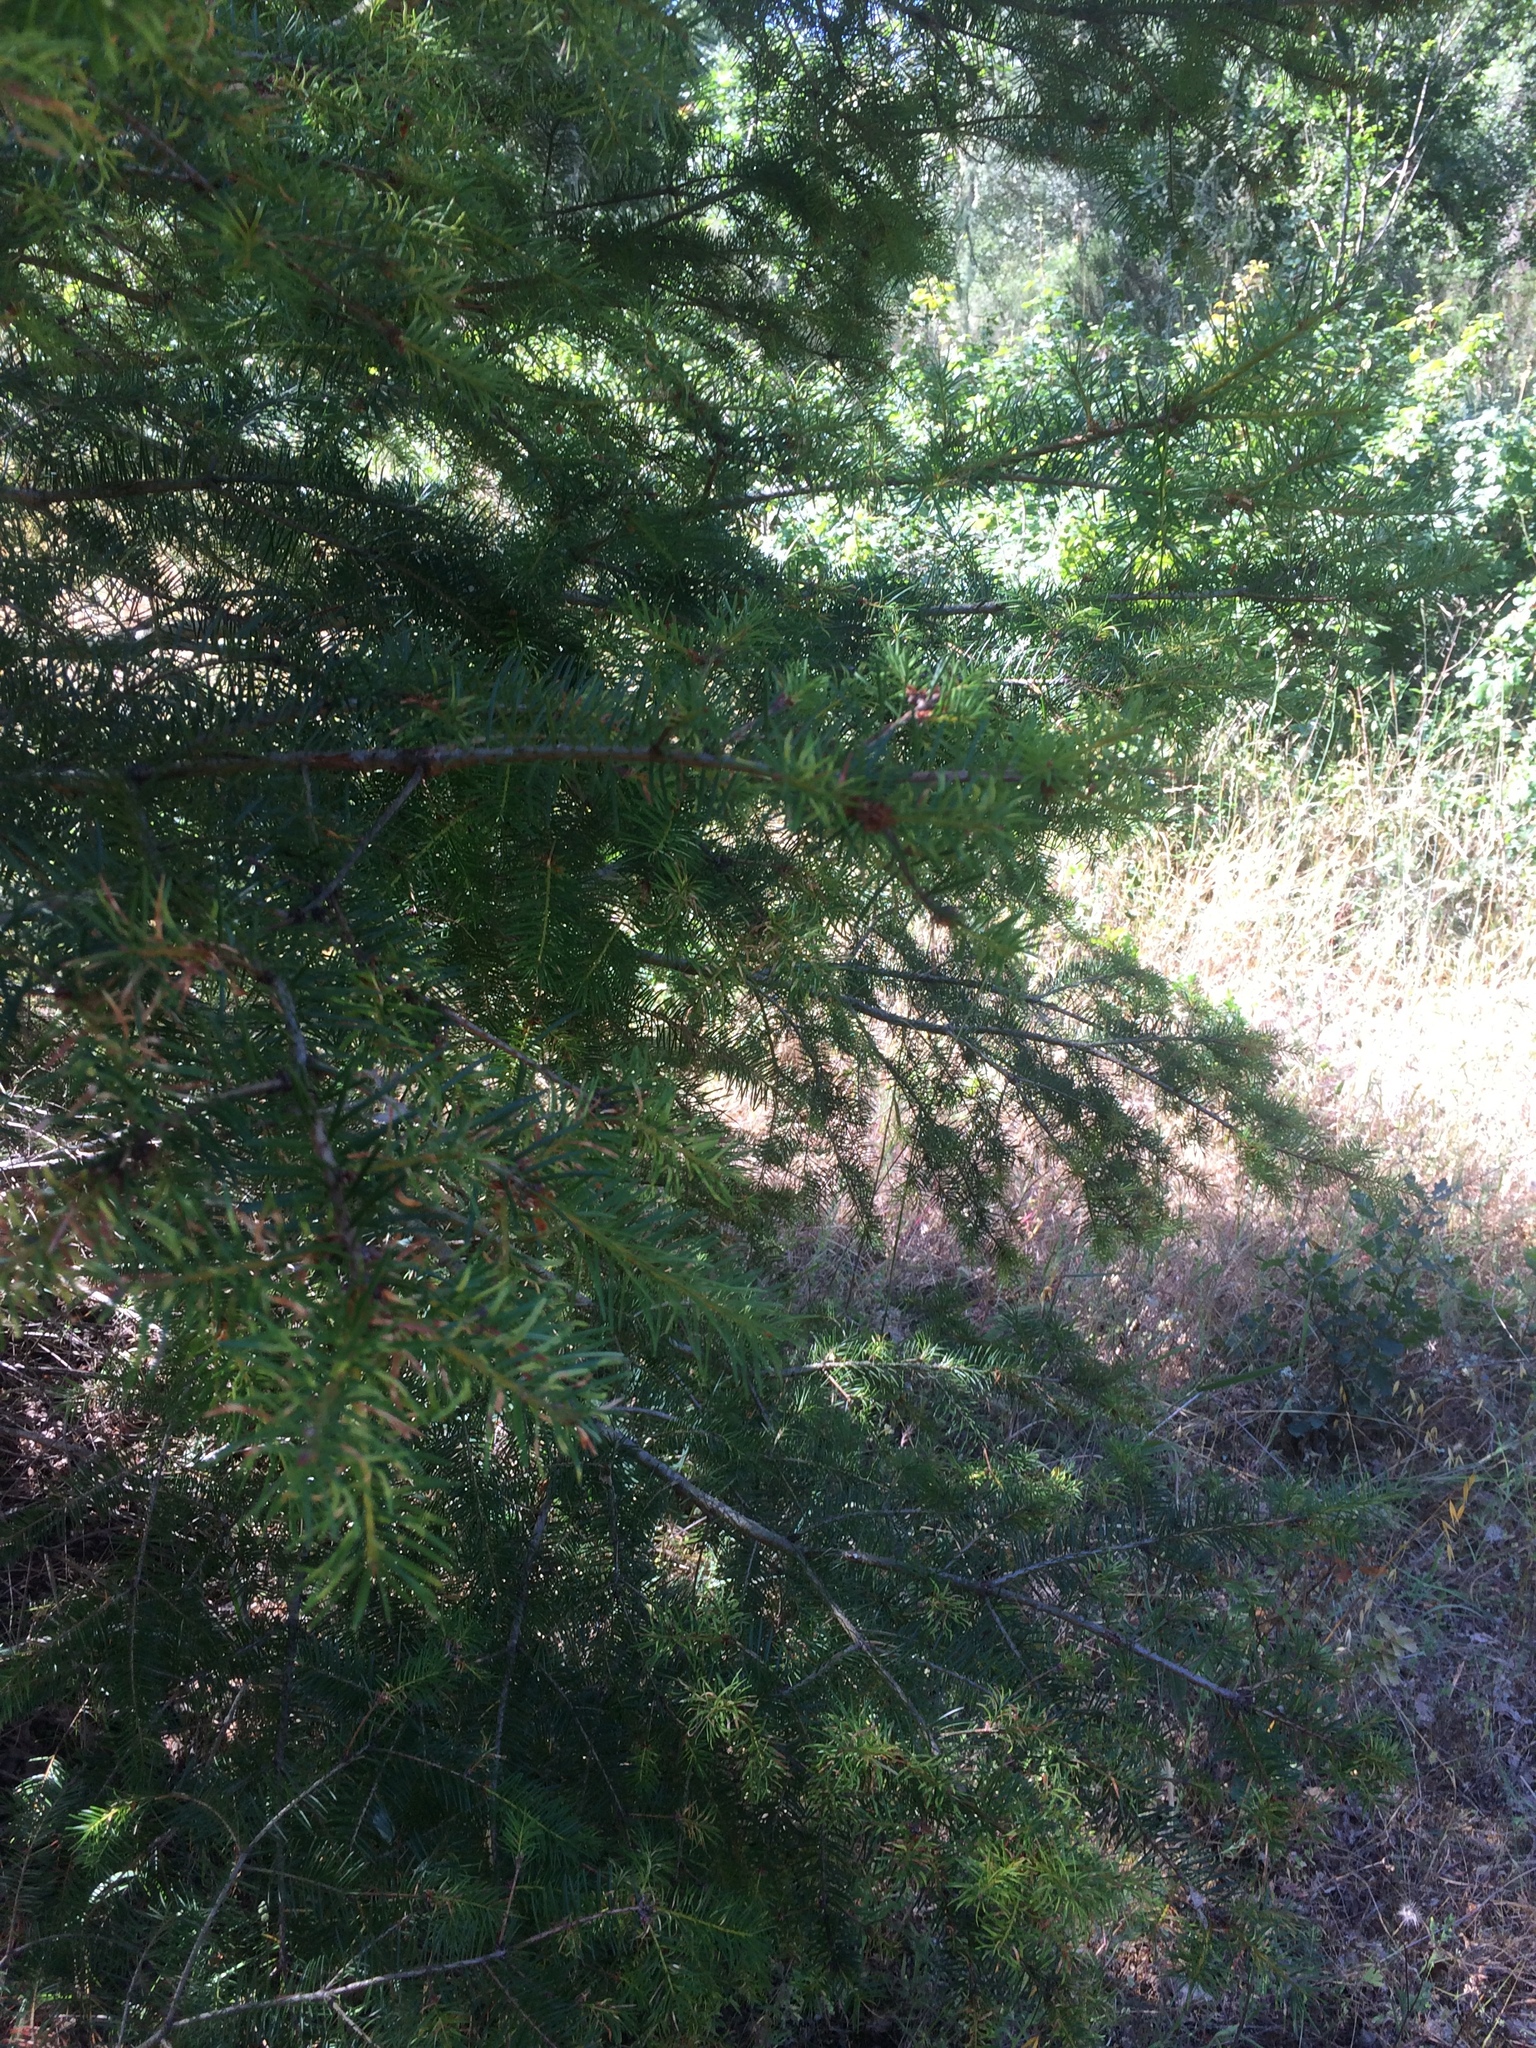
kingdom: Plantae
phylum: Tracheophyta
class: Pinopsida
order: Pinales
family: Pinaceae
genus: Pseudotsuga
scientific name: Pseudotsuga menziesii
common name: Douglas fir
